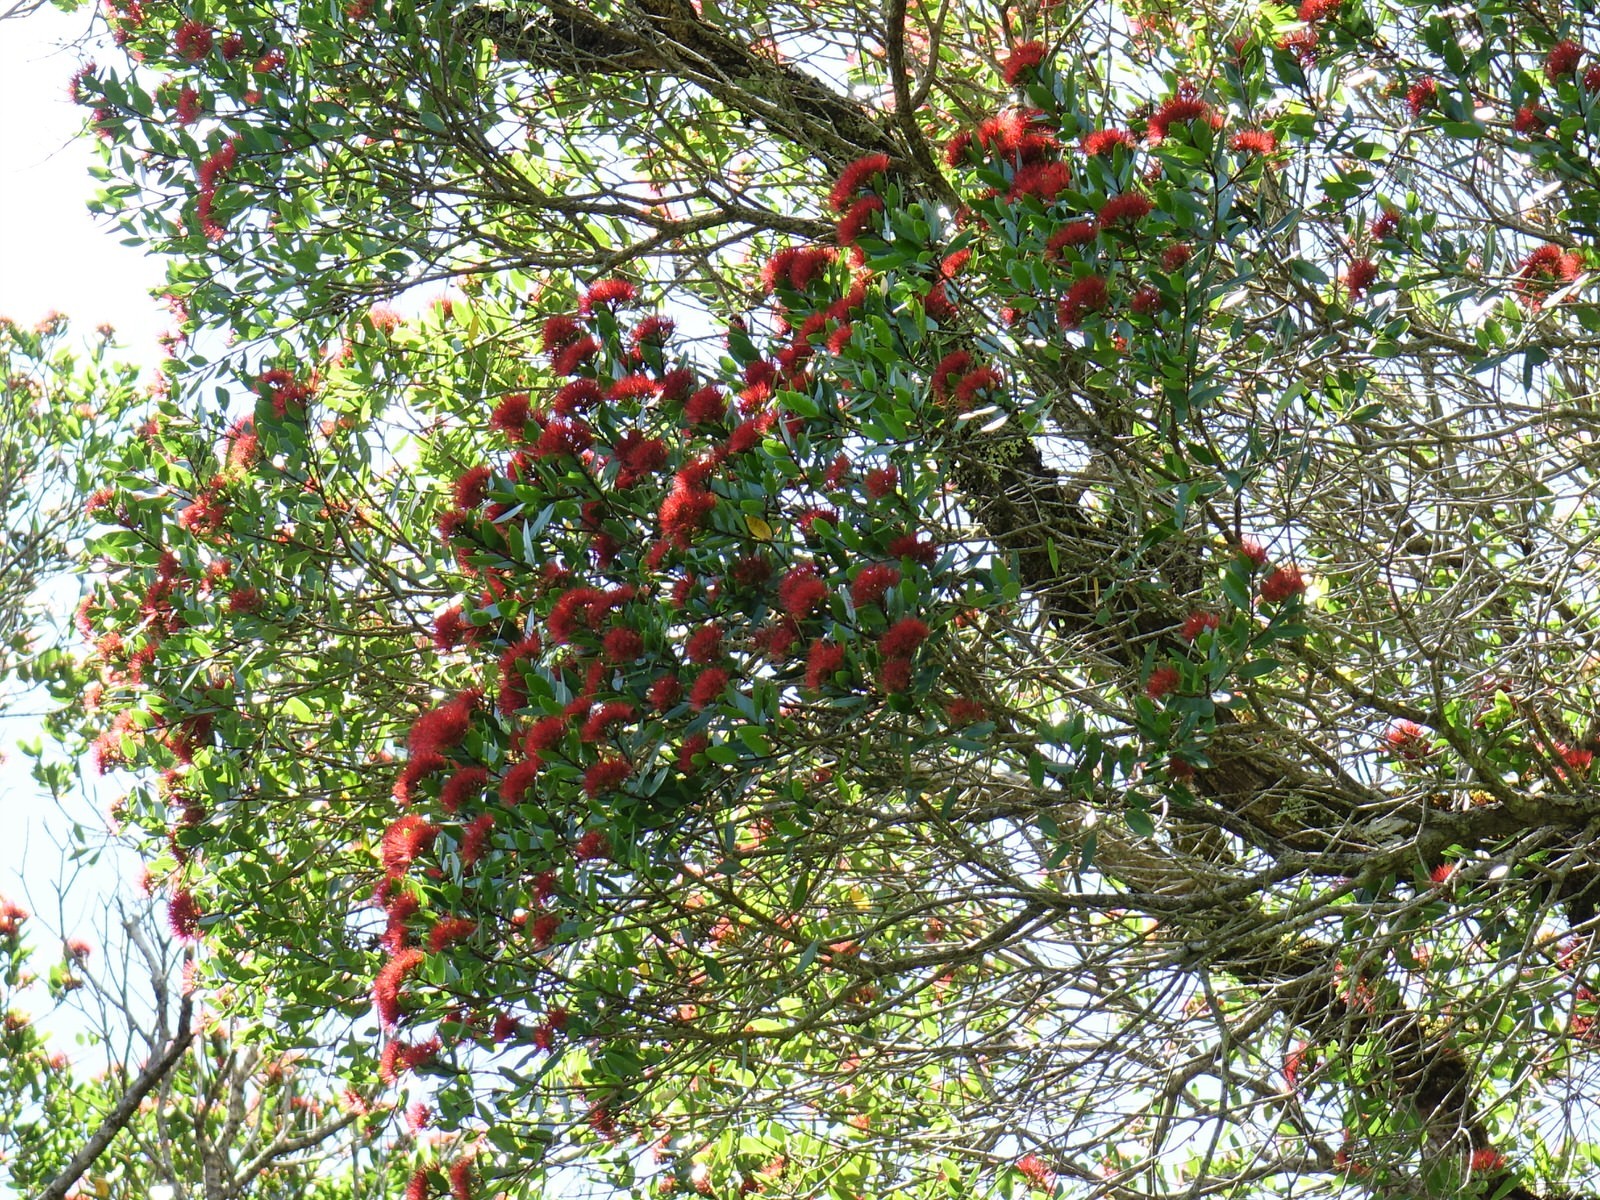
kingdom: Plantae
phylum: Tracheophyta
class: Magnoliopsida
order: Myrtales
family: Myrtaceae
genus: Metrosideros
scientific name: Metrosideros robusta
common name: Northern rata
